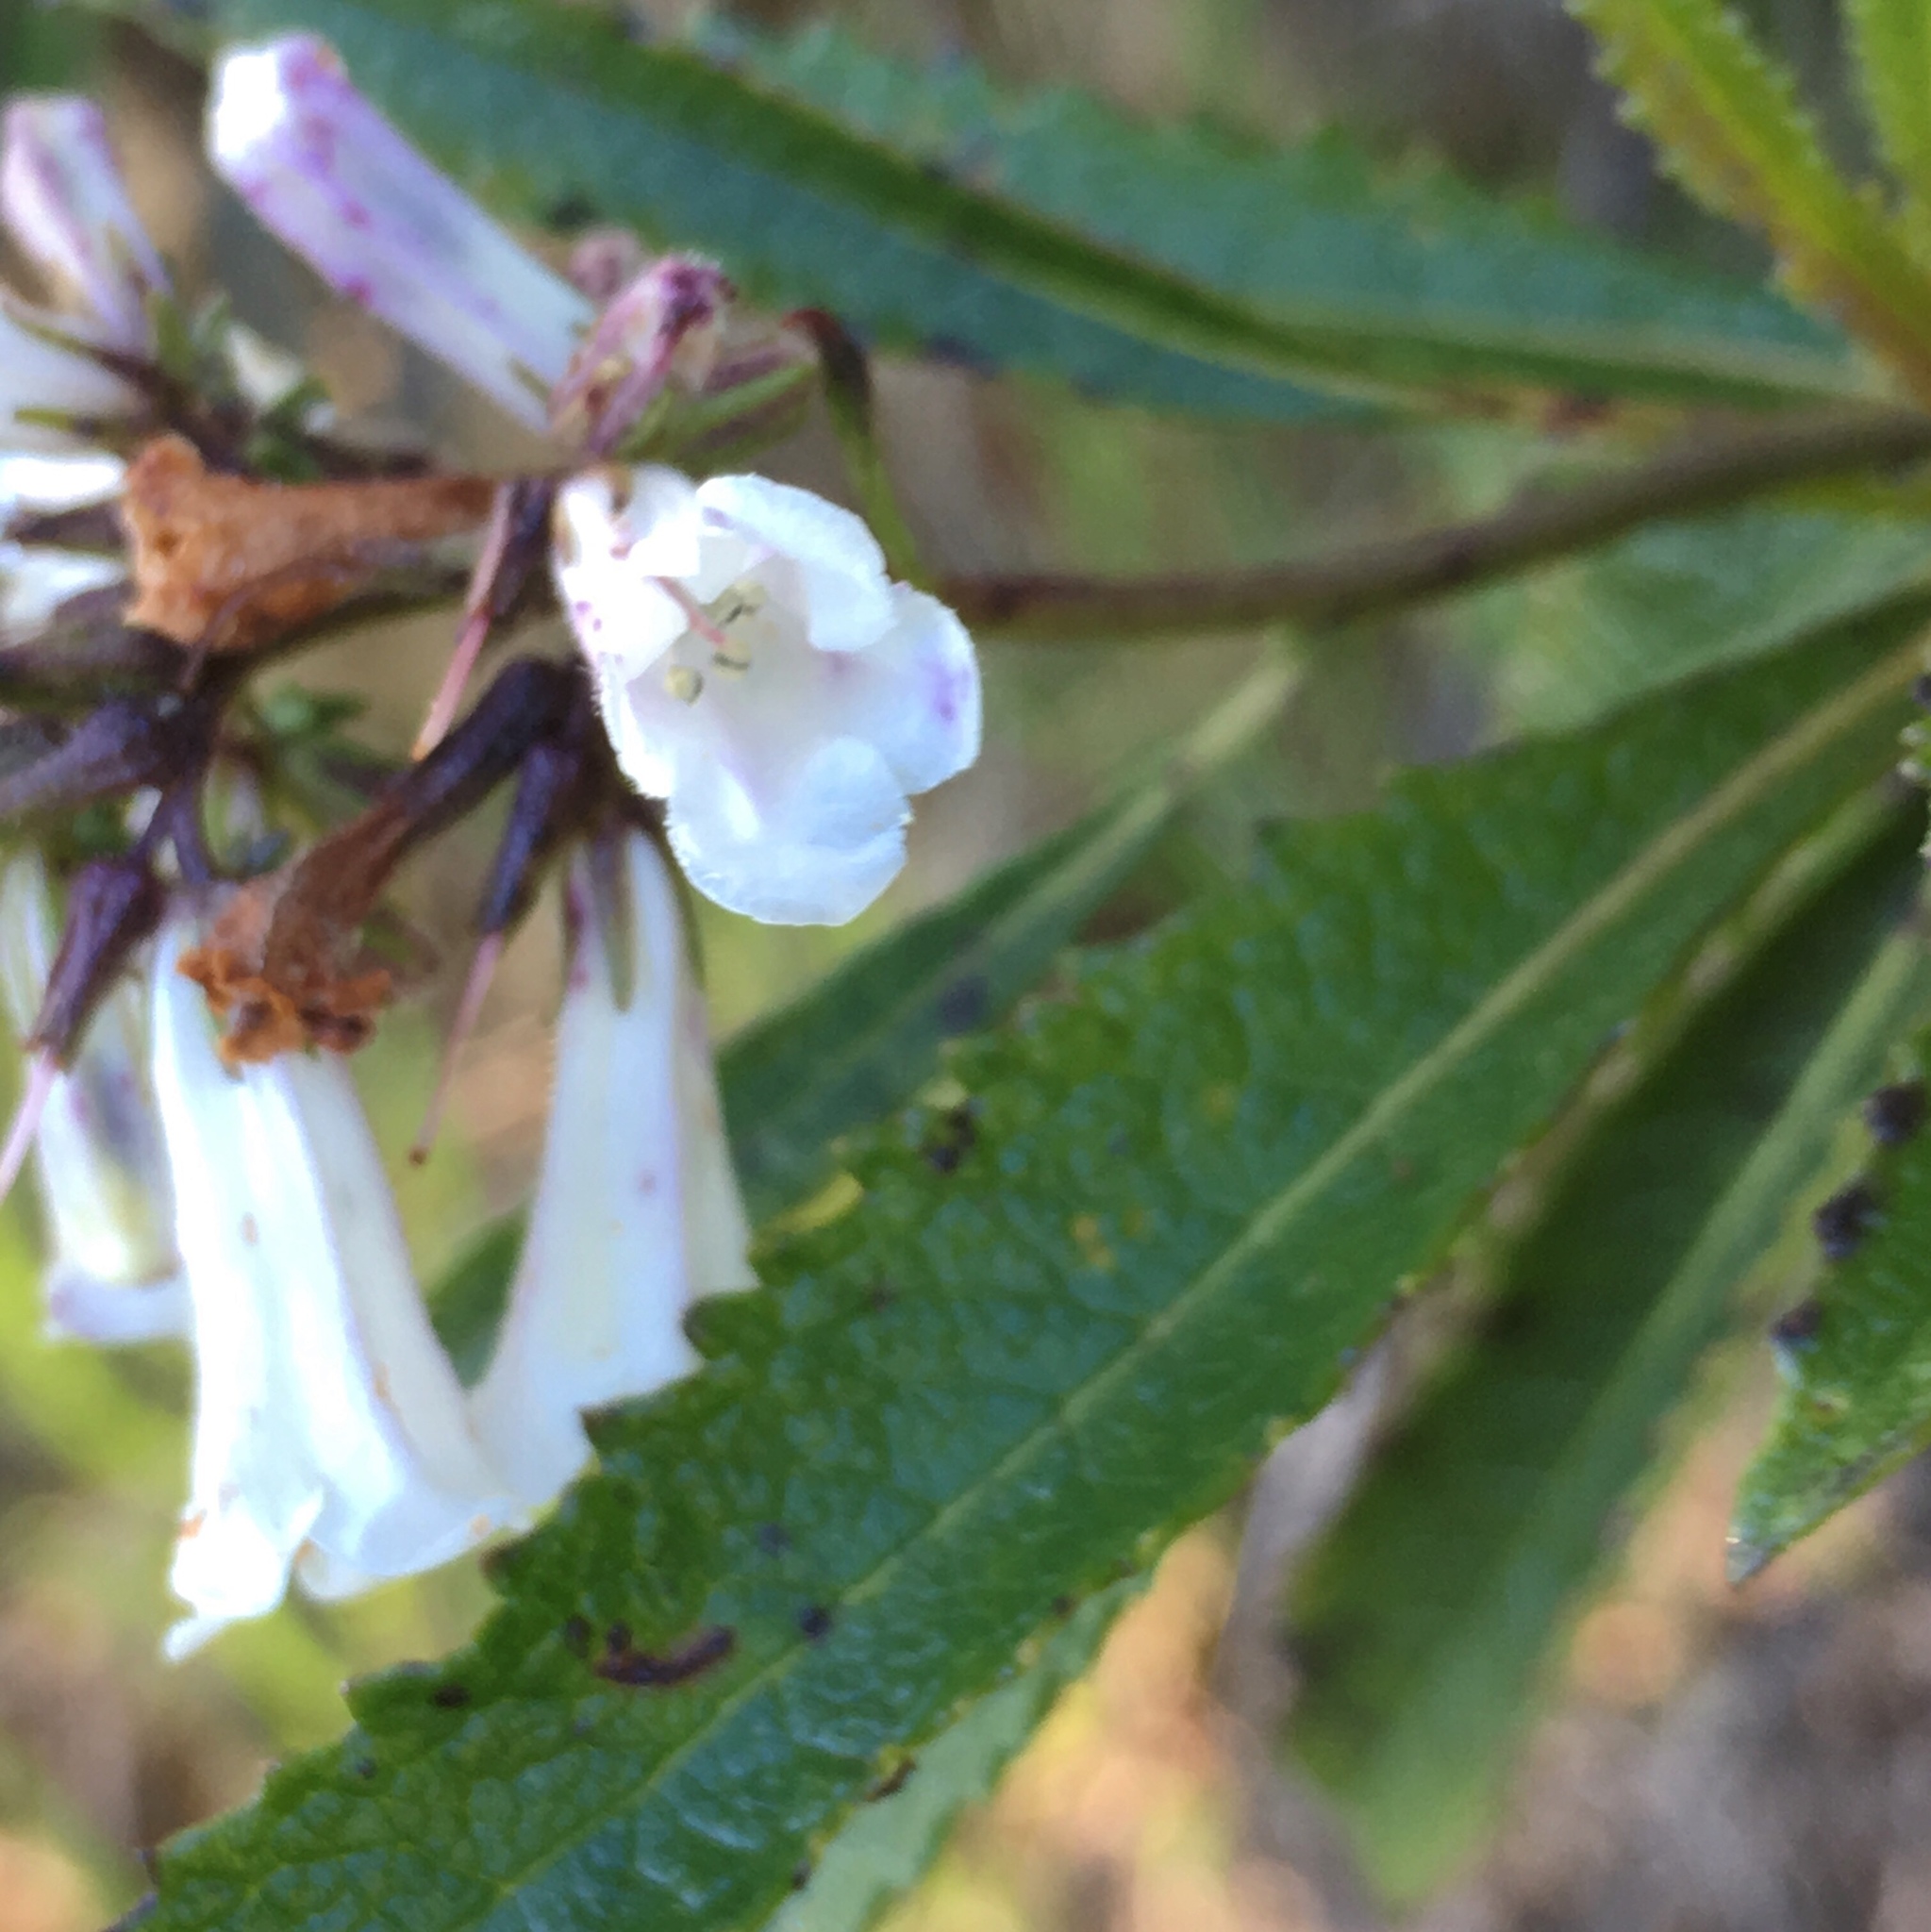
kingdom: Plantae
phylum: Tracheophyta
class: Magnoliopsida
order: Boraginales
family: Namaceae
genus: Eriodictyon
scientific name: Eriodictyon californicum
